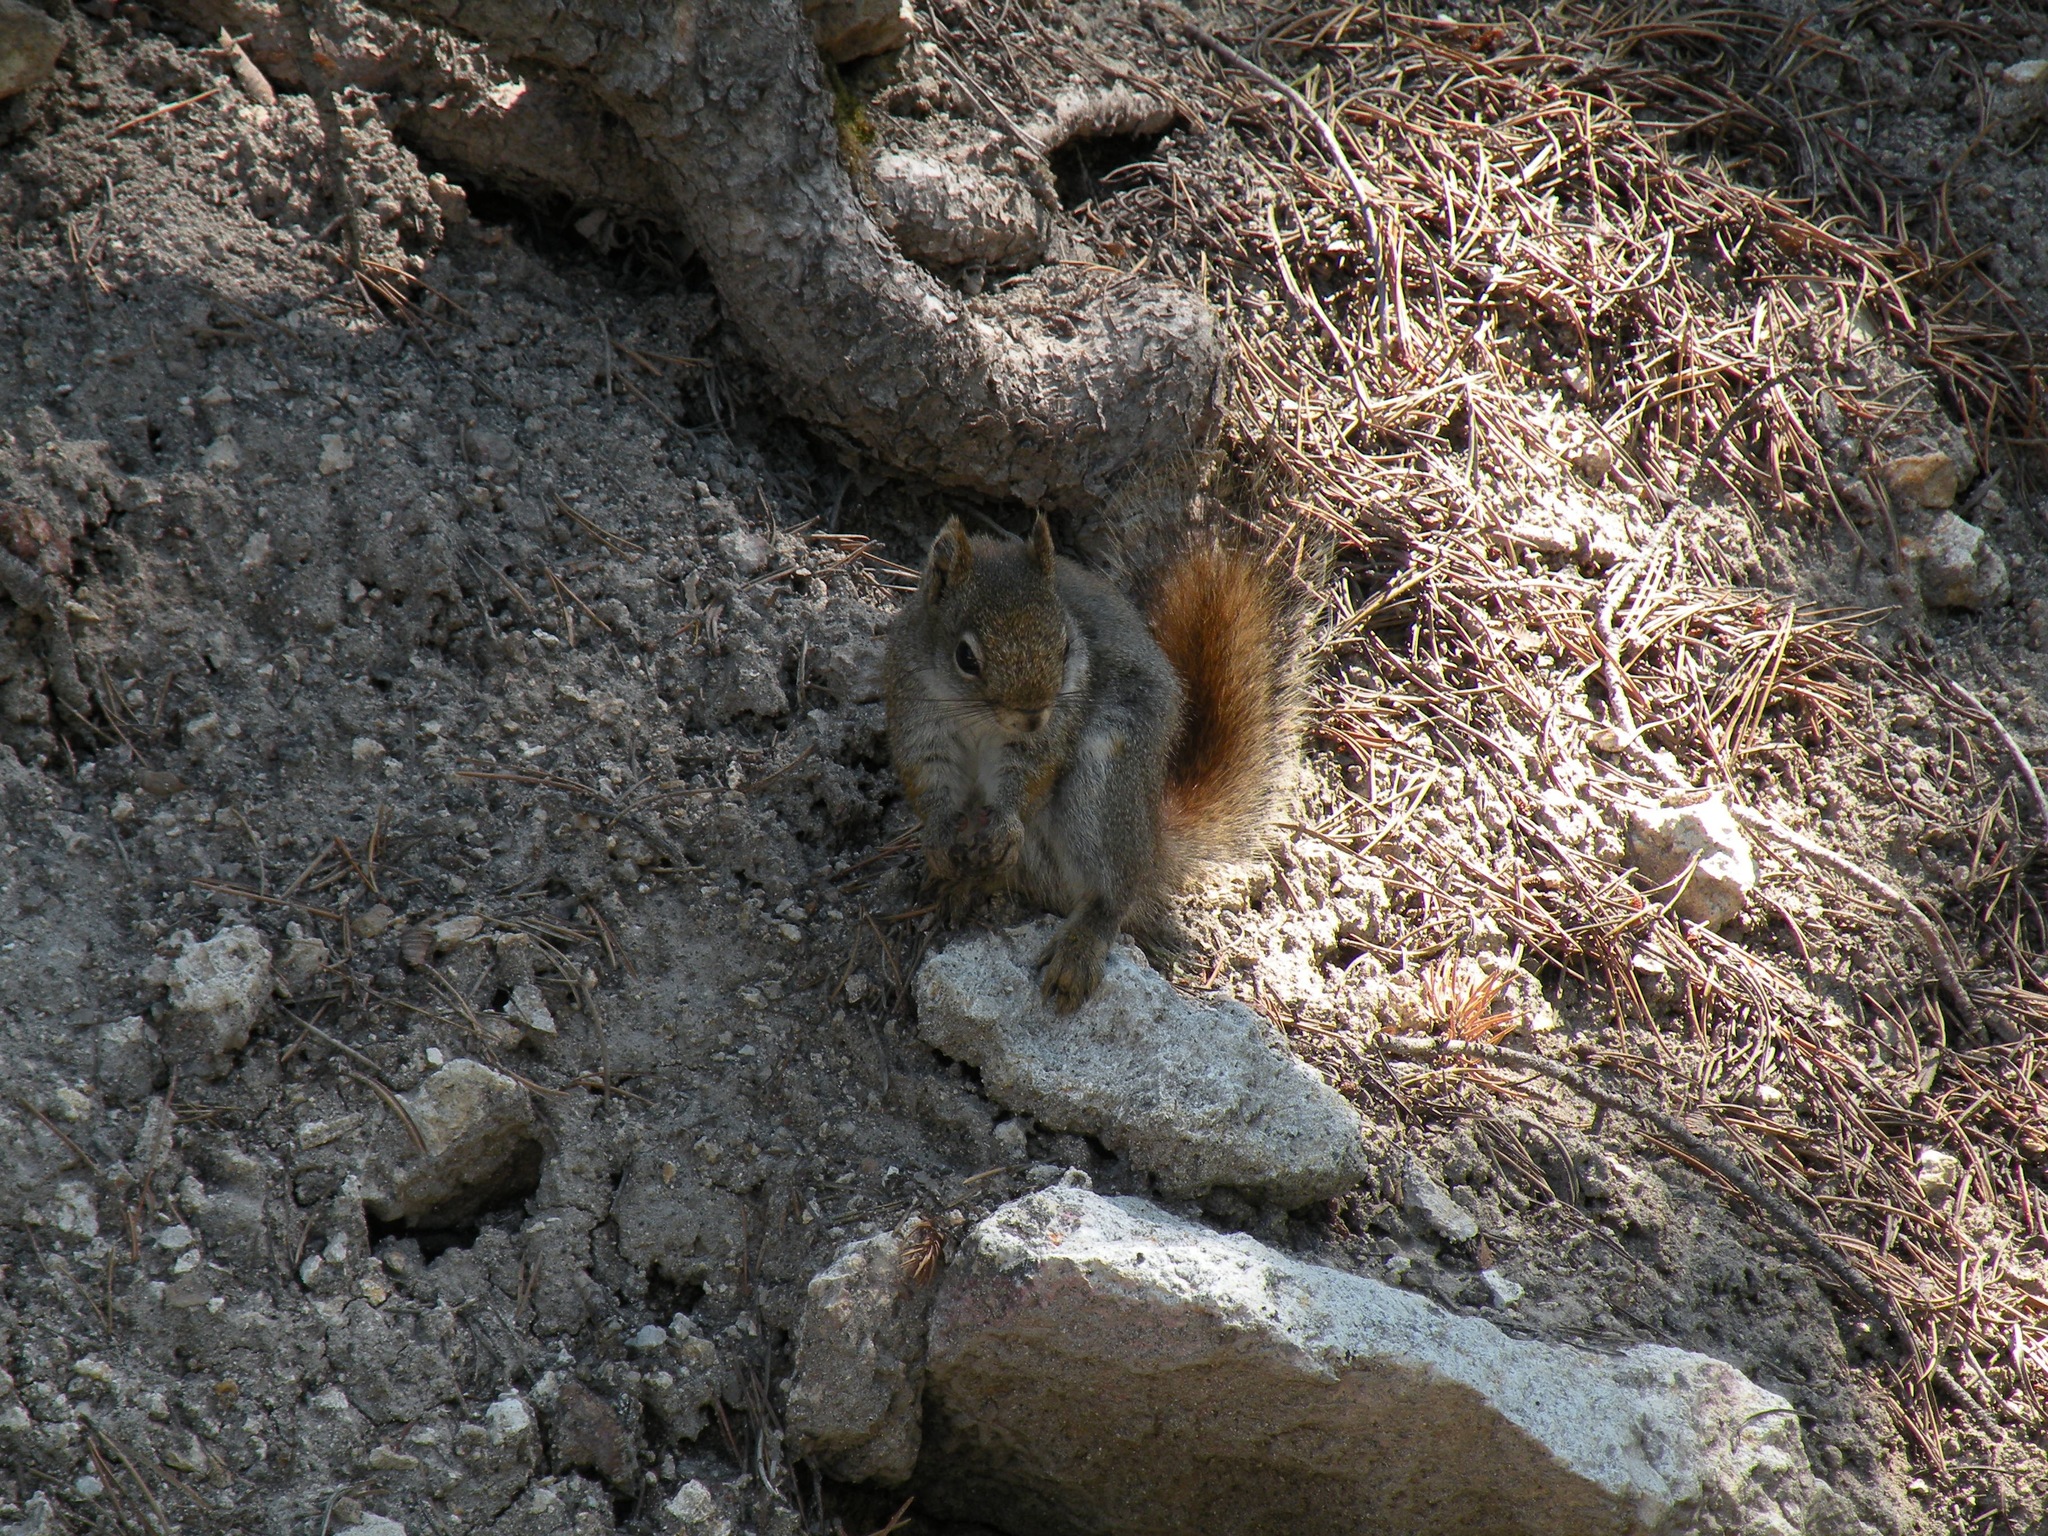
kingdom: Animalia
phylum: Chordata
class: Mammalia
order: Rodentia
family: Sciuridae
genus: Tamiasciurus
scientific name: Tamiasciurus hudsonicus
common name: Red squirrel
